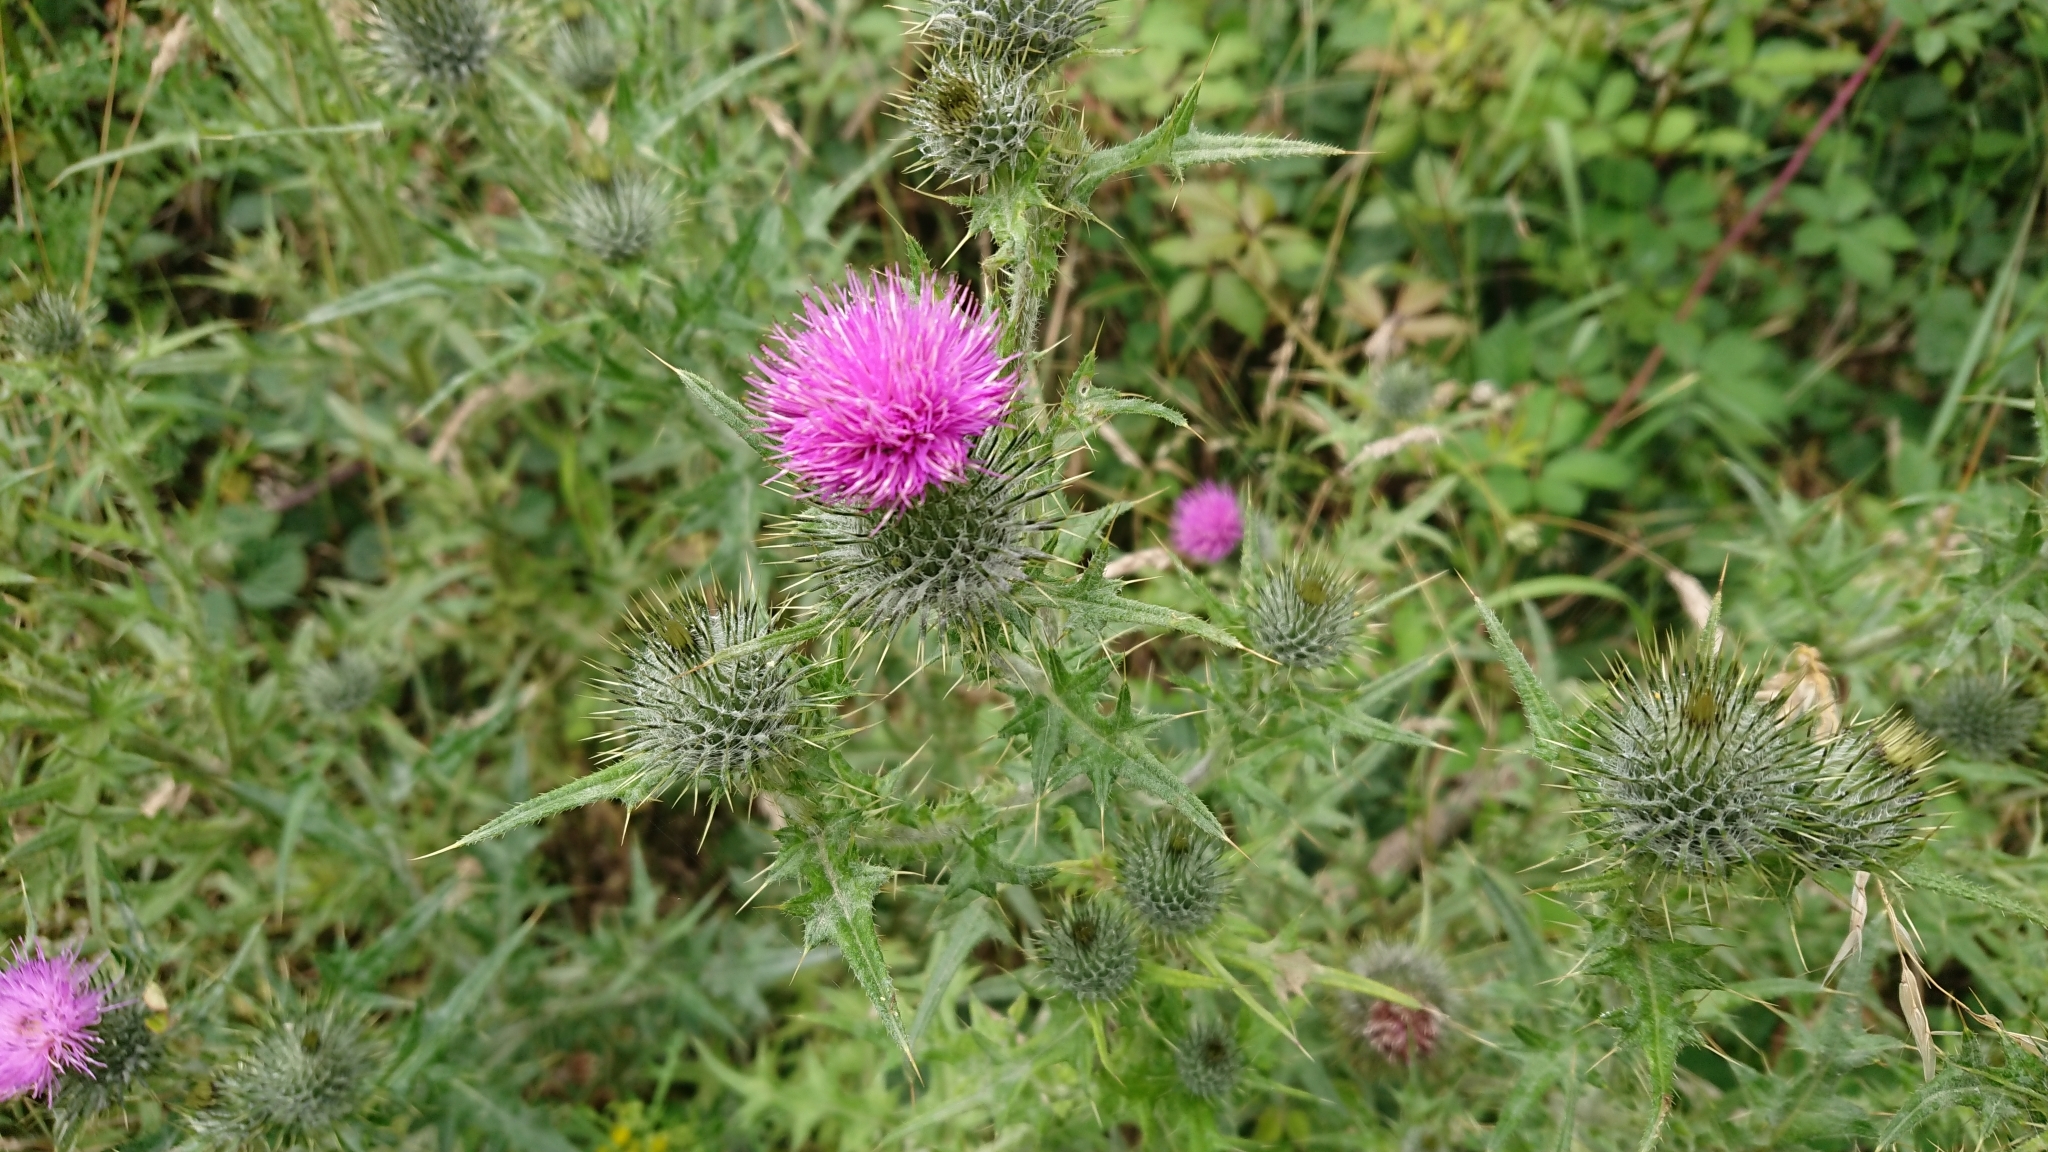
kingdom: Plantae
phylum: Tracheophyta
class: Magnoliopsida
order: Asterales
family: Asteraceae
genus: Cirsium
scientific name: Cirsium vulgare
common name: Bull thistle
